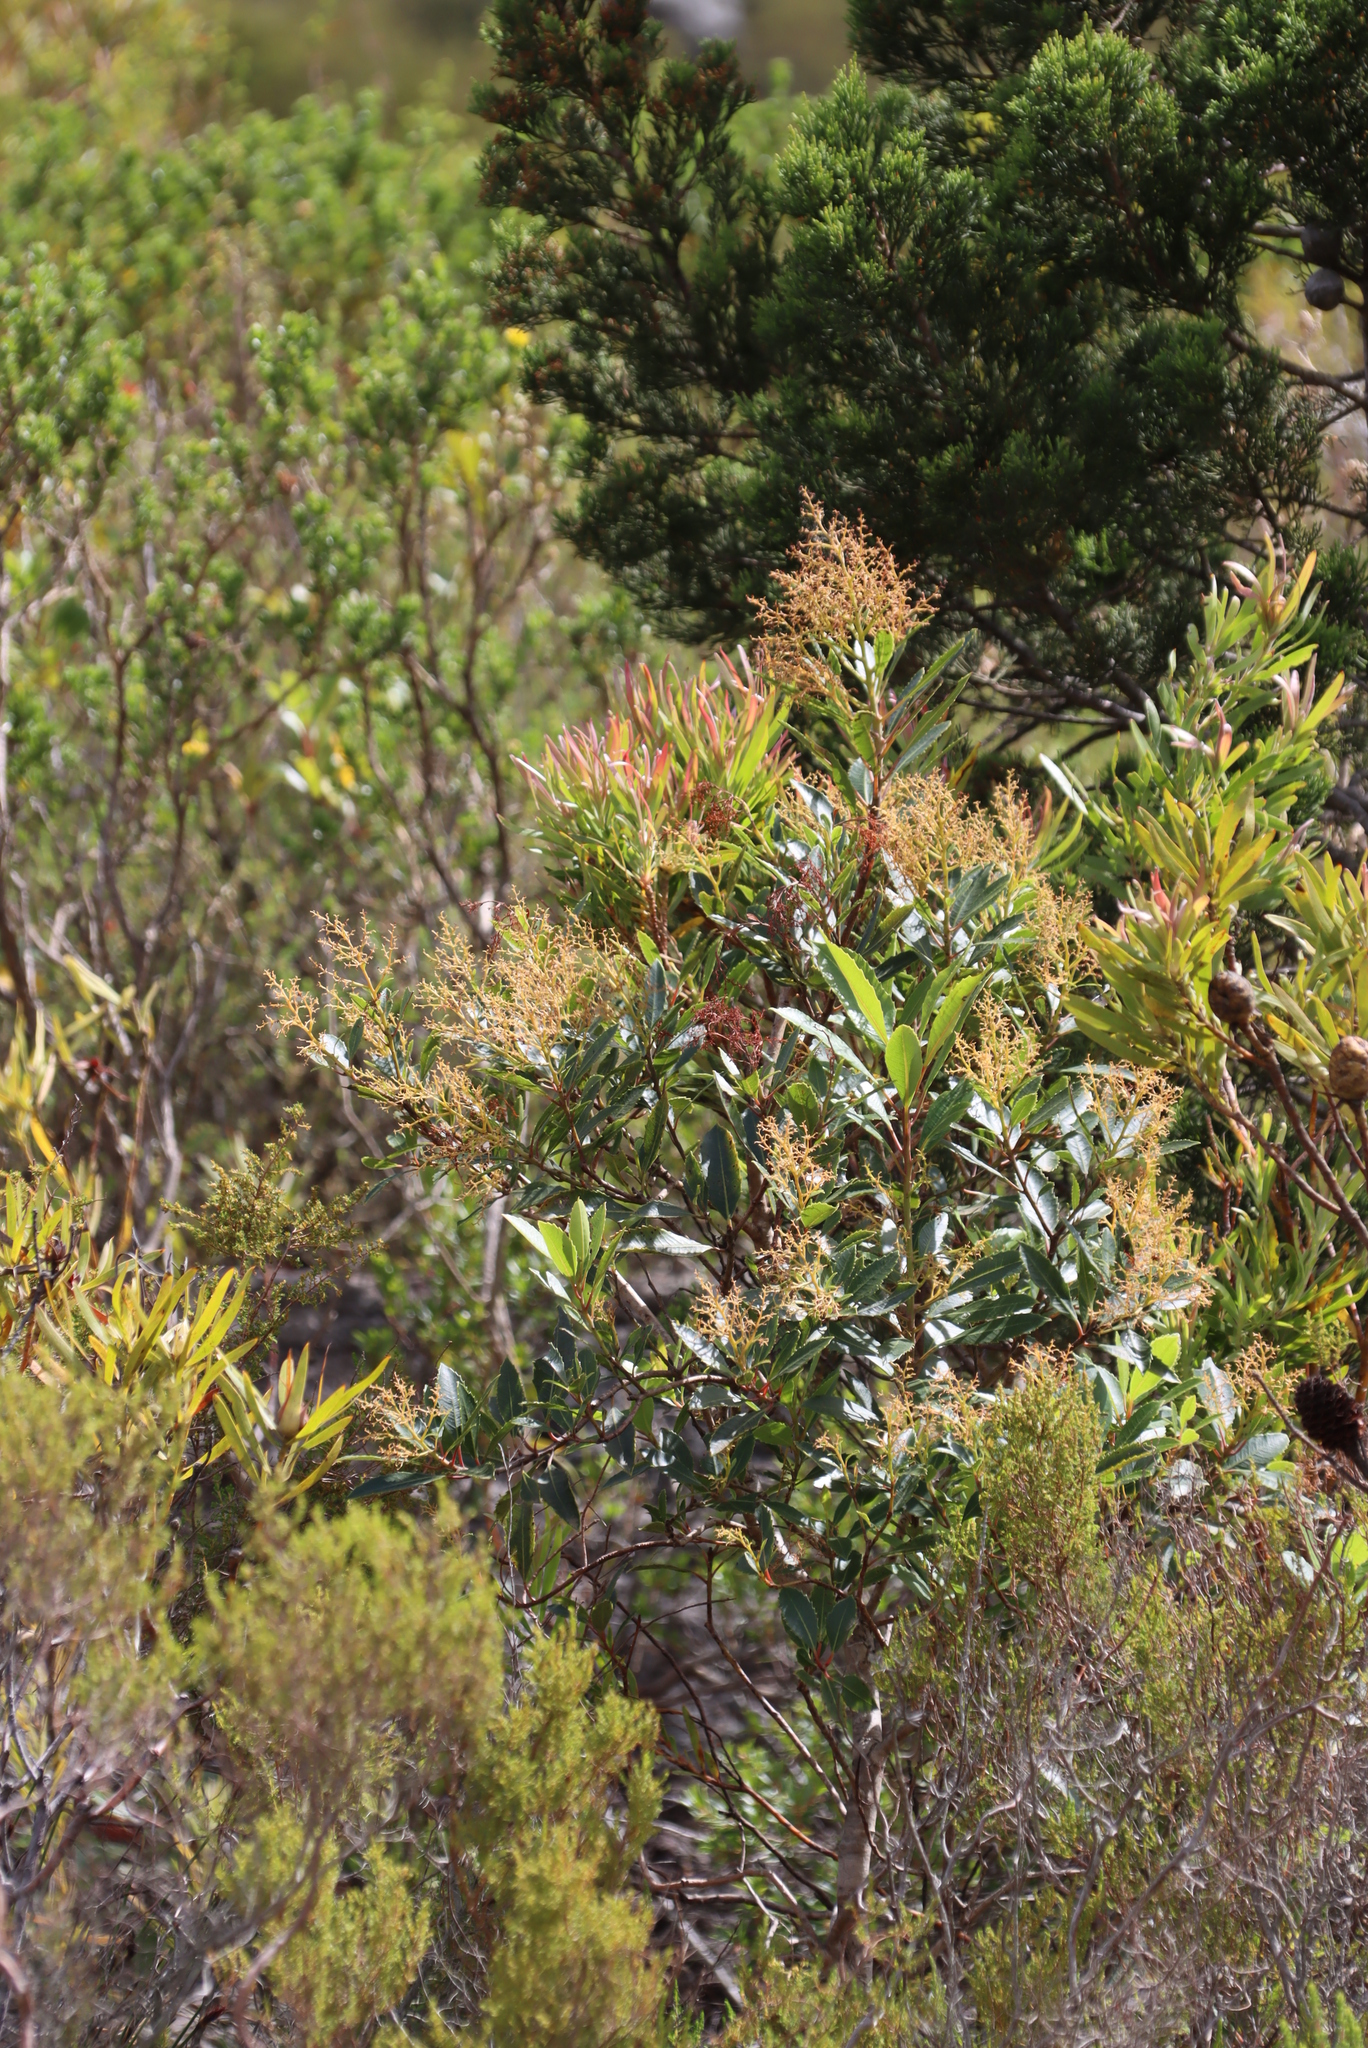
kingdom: Plantae
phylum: Tracheophyta
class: Magnoliopsida
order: Sapindales
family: Anacardiaceae
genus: Laurophyllus
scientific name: Laurophyllus capensis
